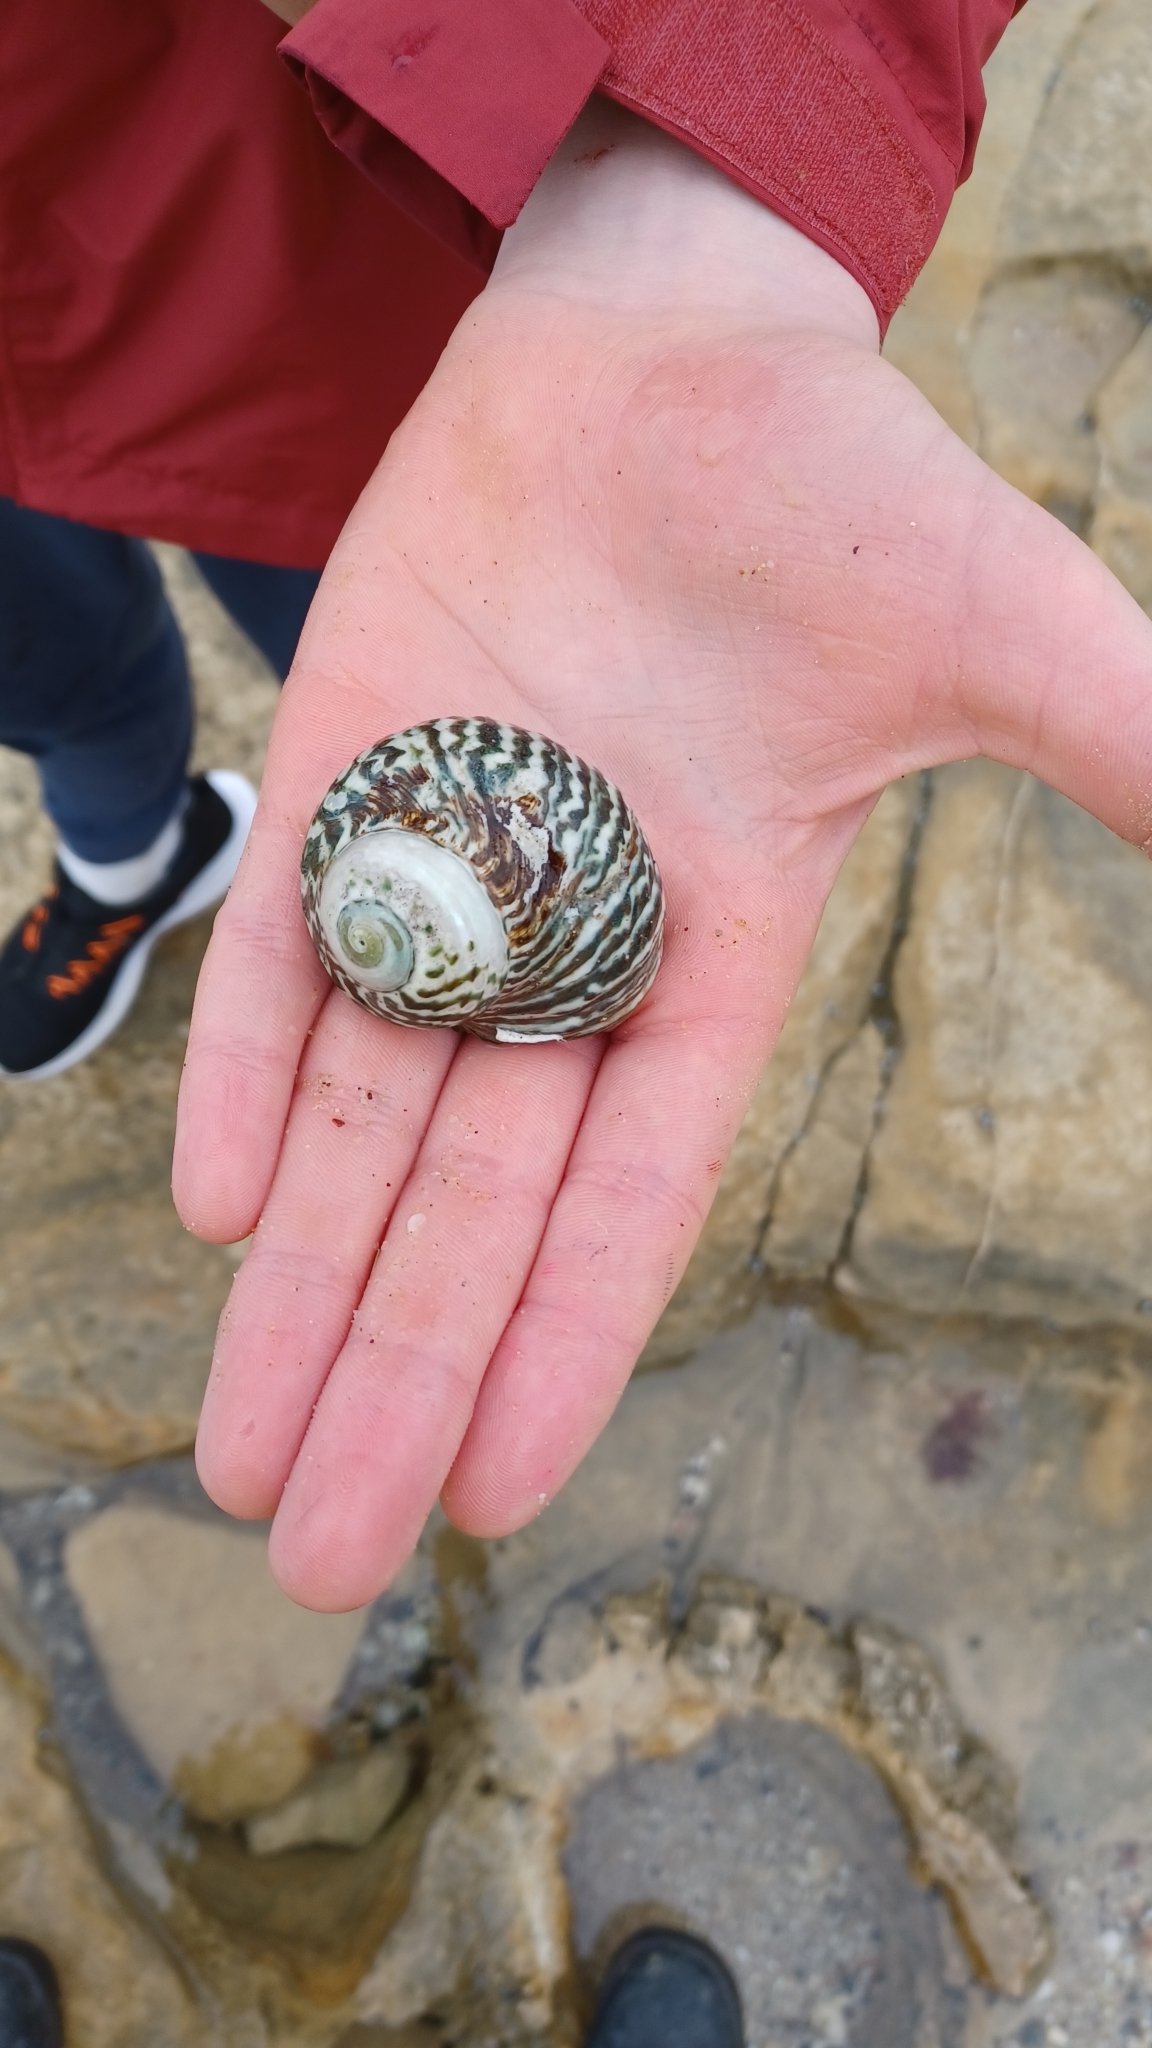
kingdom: Animalia
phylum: Mollusca
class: Gastropoda
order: Trochida
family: Turbinidae
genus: Lunella
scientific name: Lunella undulata
